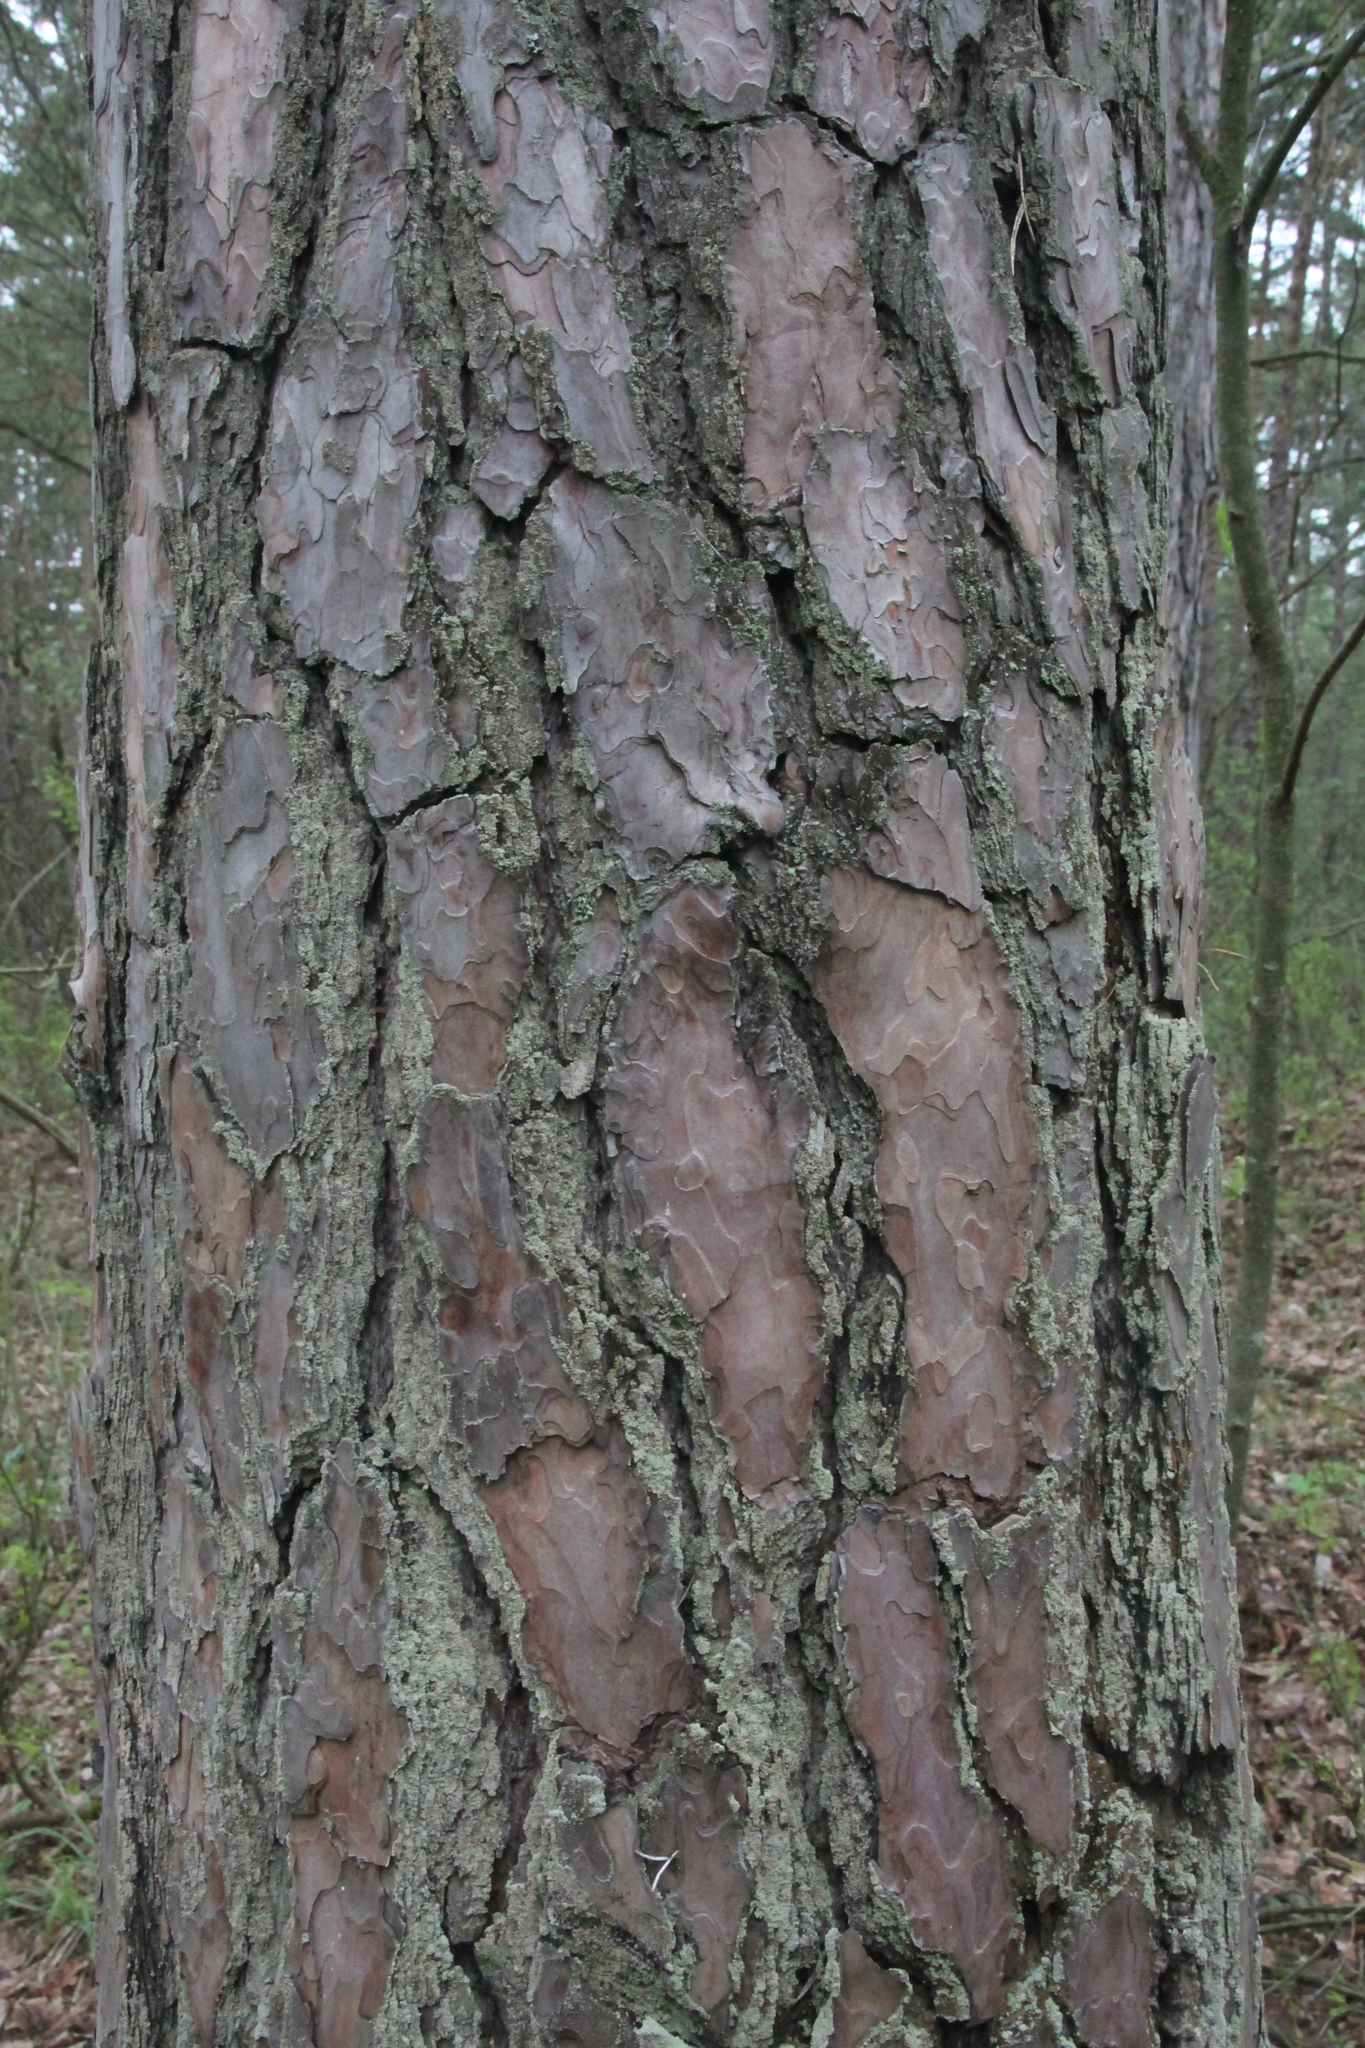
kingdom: Plantae
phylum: Tracheophyta
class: Pinopsida
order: Pinales
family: Pinaceae
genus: Pinus
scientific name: Pinus sylvestris
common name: Scots pine
